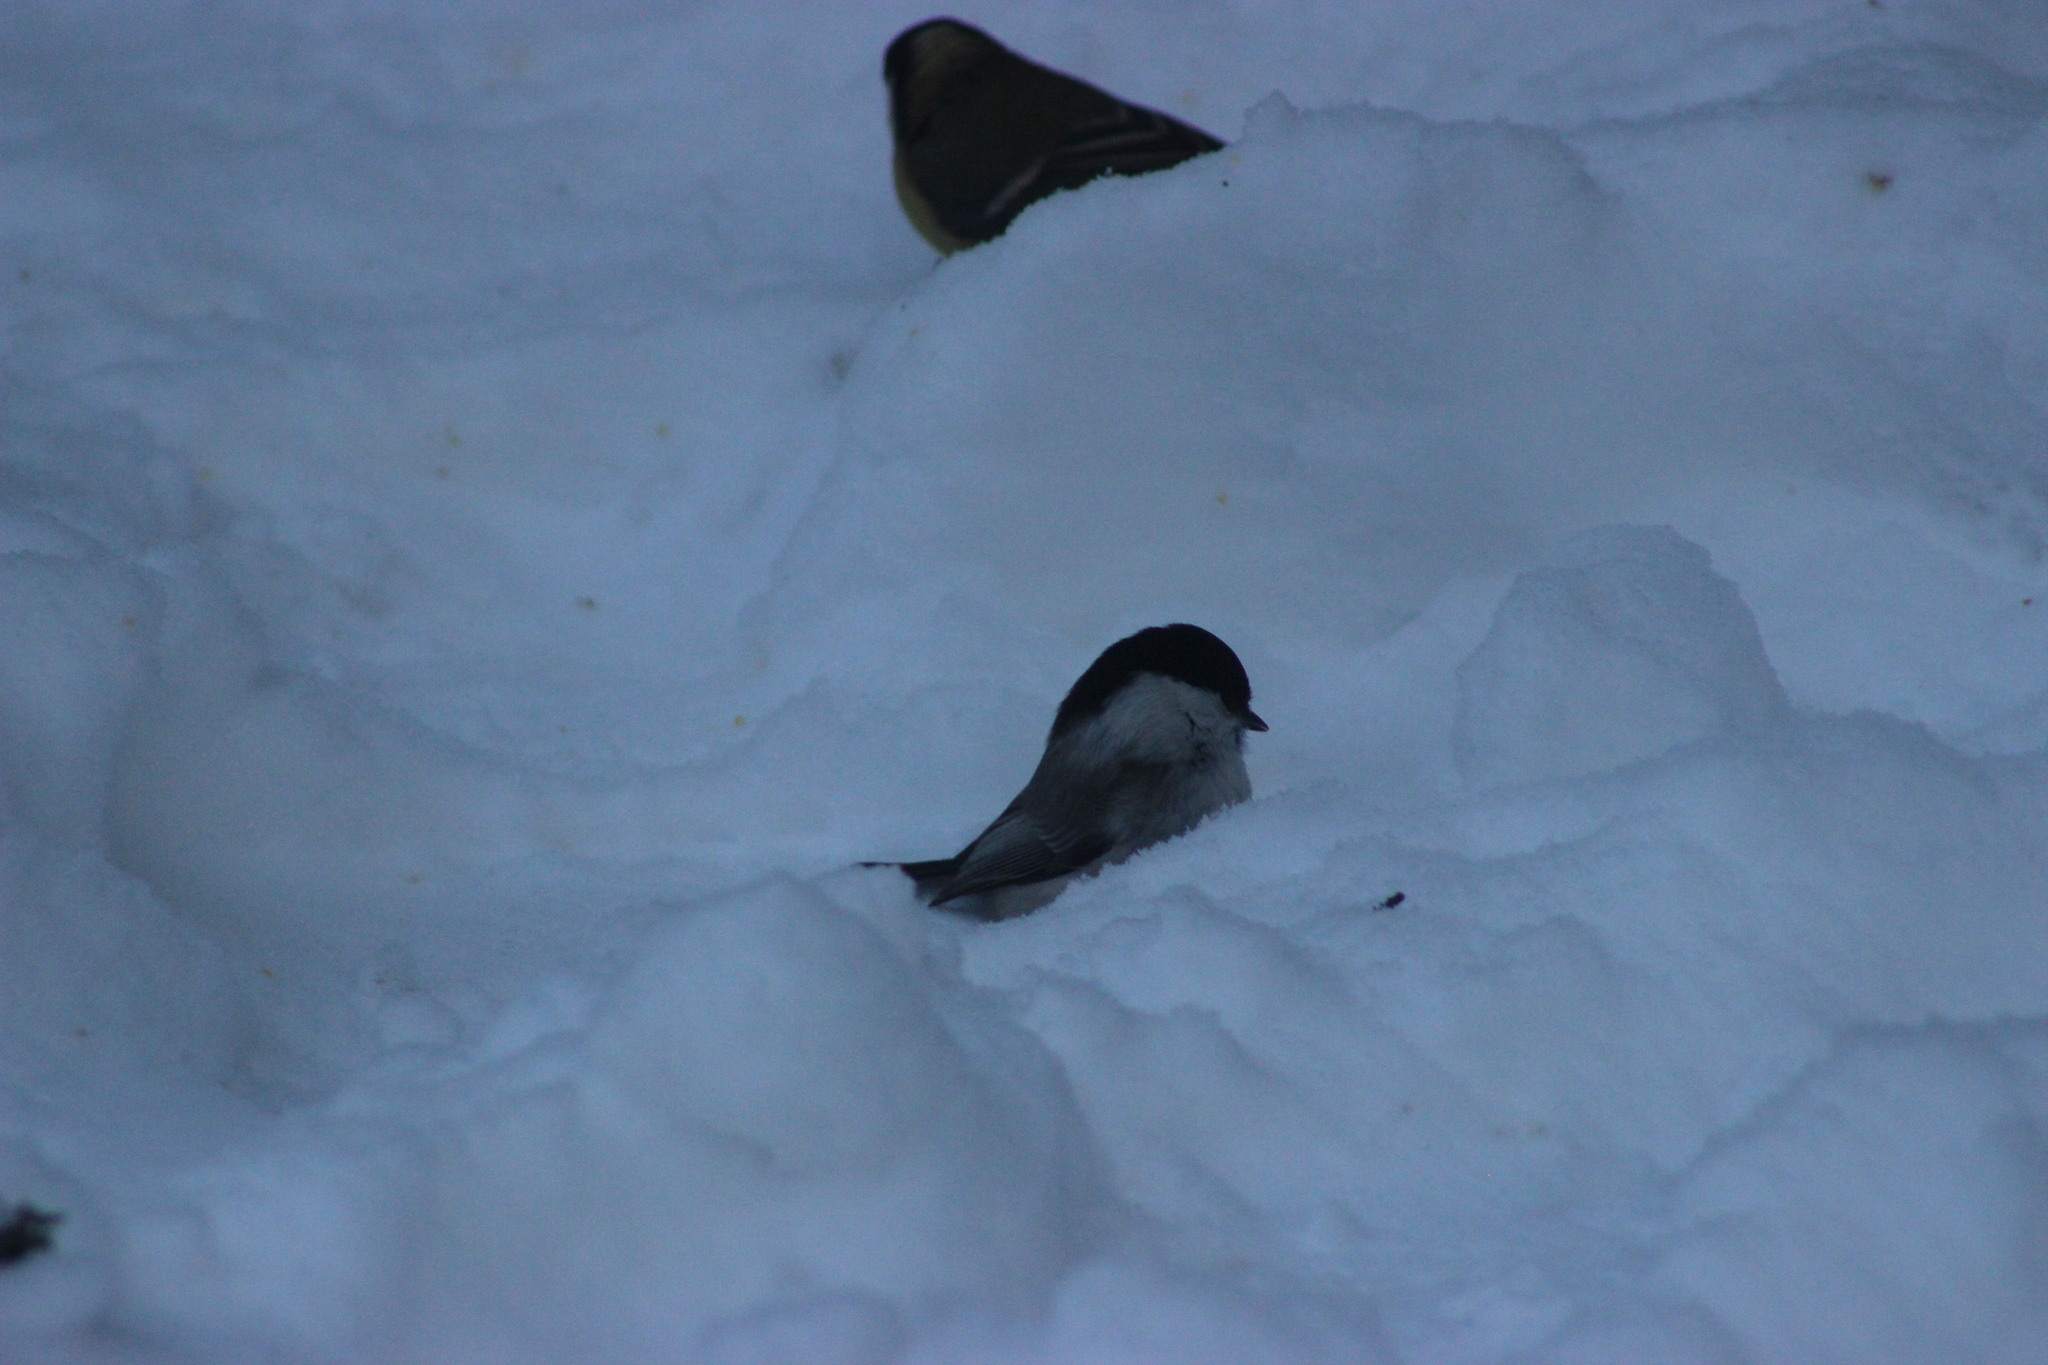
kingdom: Animalia
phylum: Chordata
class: Aves
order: Passeriformes
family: Paridae
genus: Poecile
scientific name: Poecile montanus
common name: Willow tit
